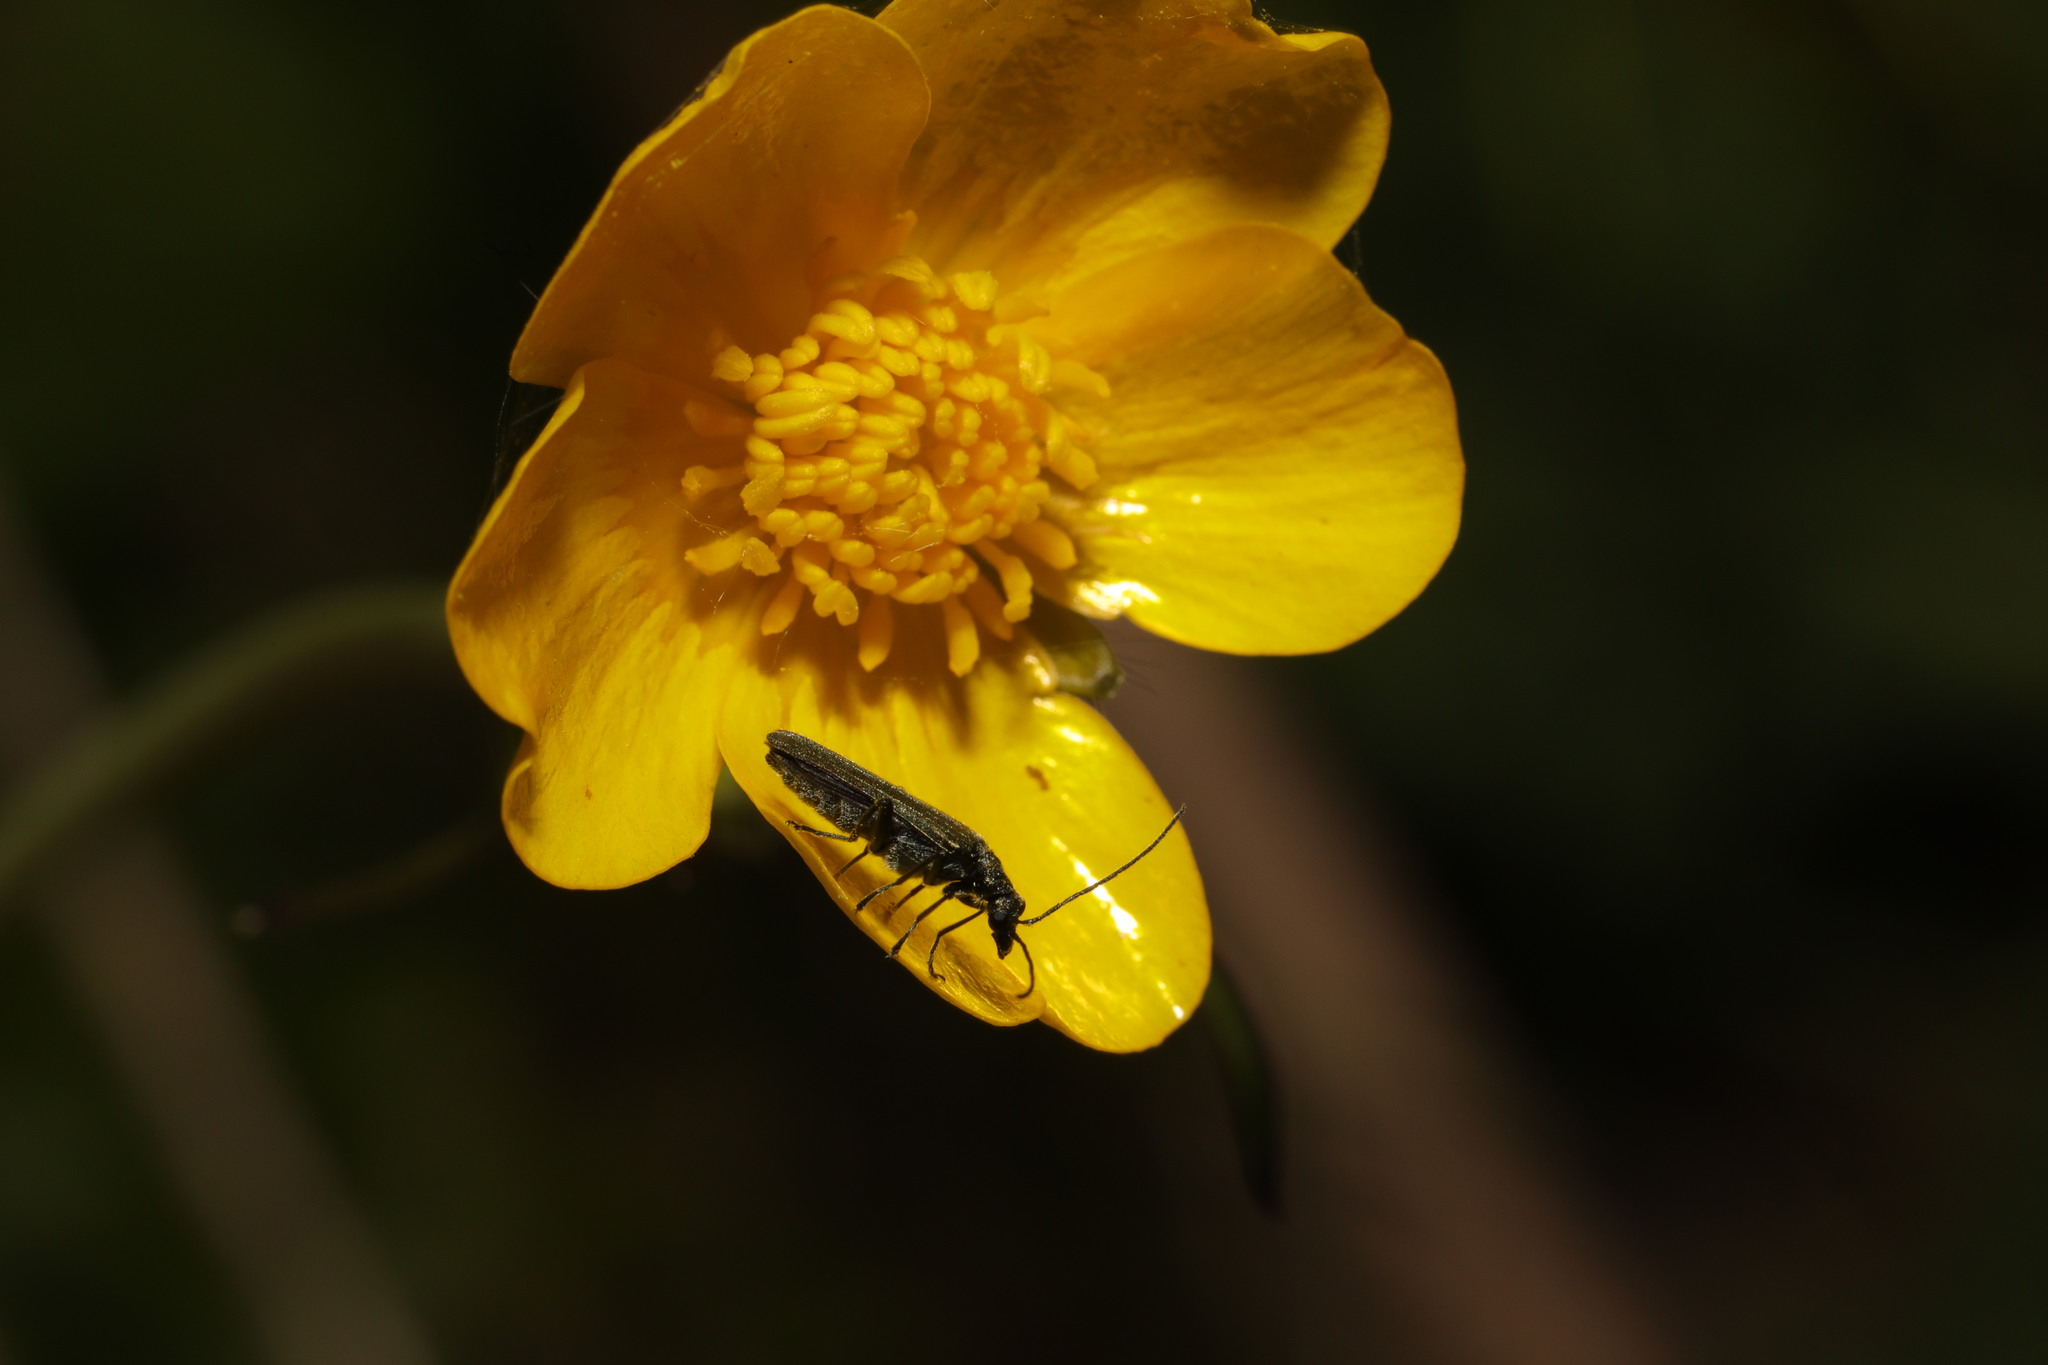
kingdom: Animalia
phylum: Arthropoda
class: Insecta
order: Coleoptera
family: Oedemeridae
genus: Oedemera
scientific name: Oedemera lurida
